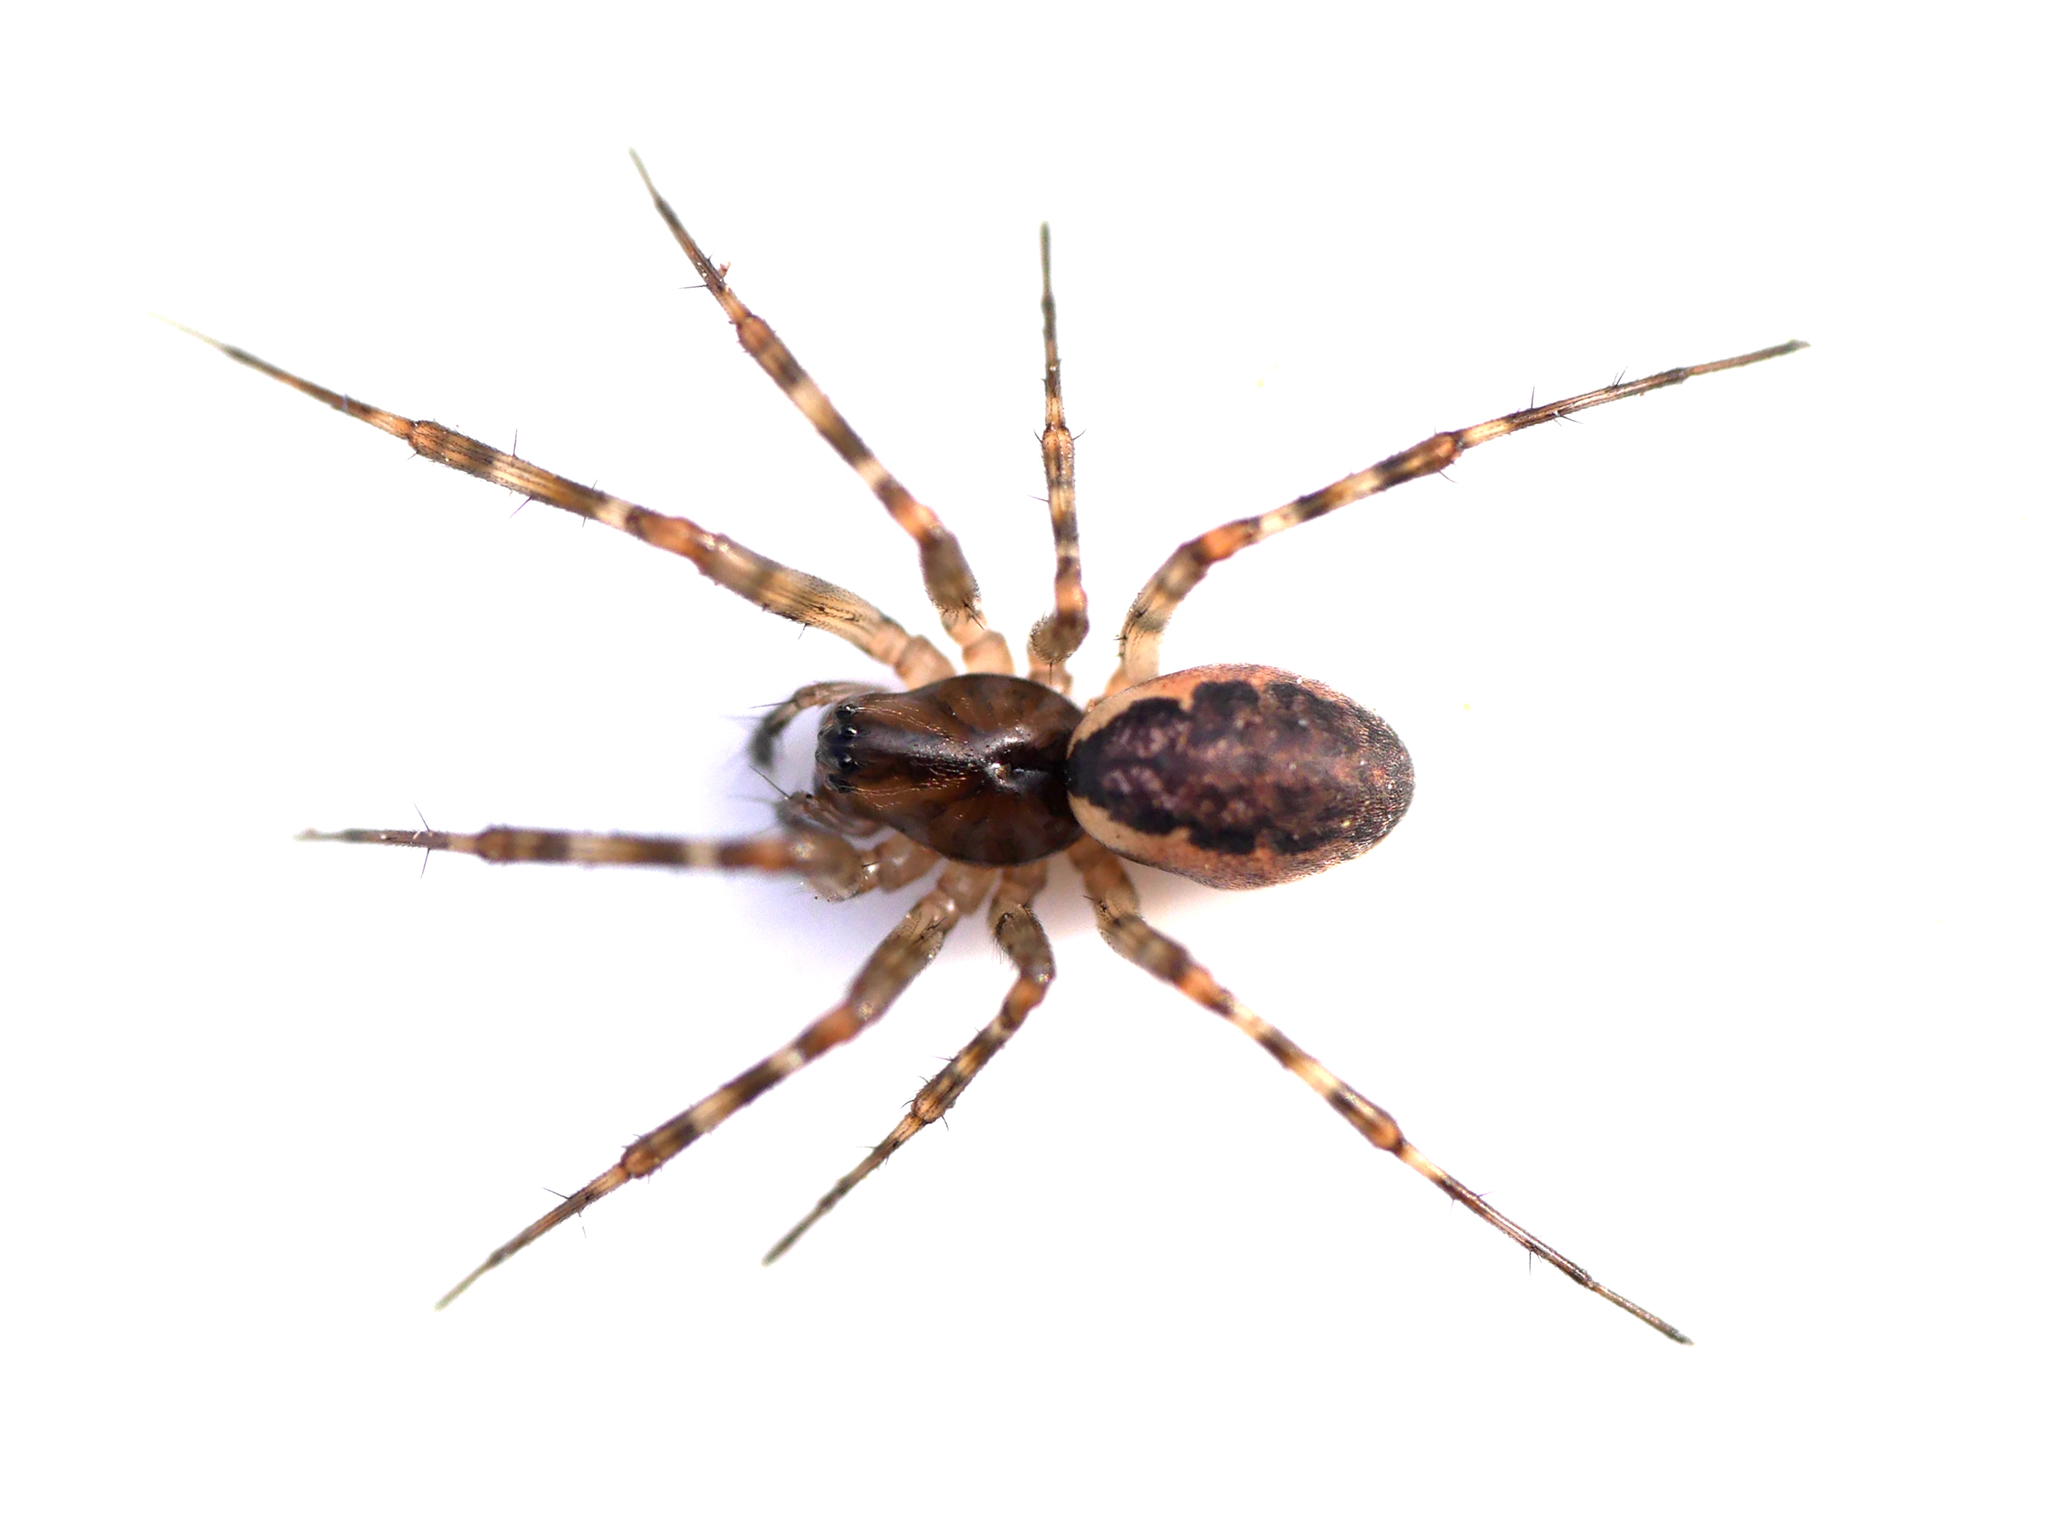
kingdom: Animalia
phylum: Arthropoda
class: Arachnida
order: Araneae
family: Linyphiidae
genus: Neriene
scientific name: Neriene montana
